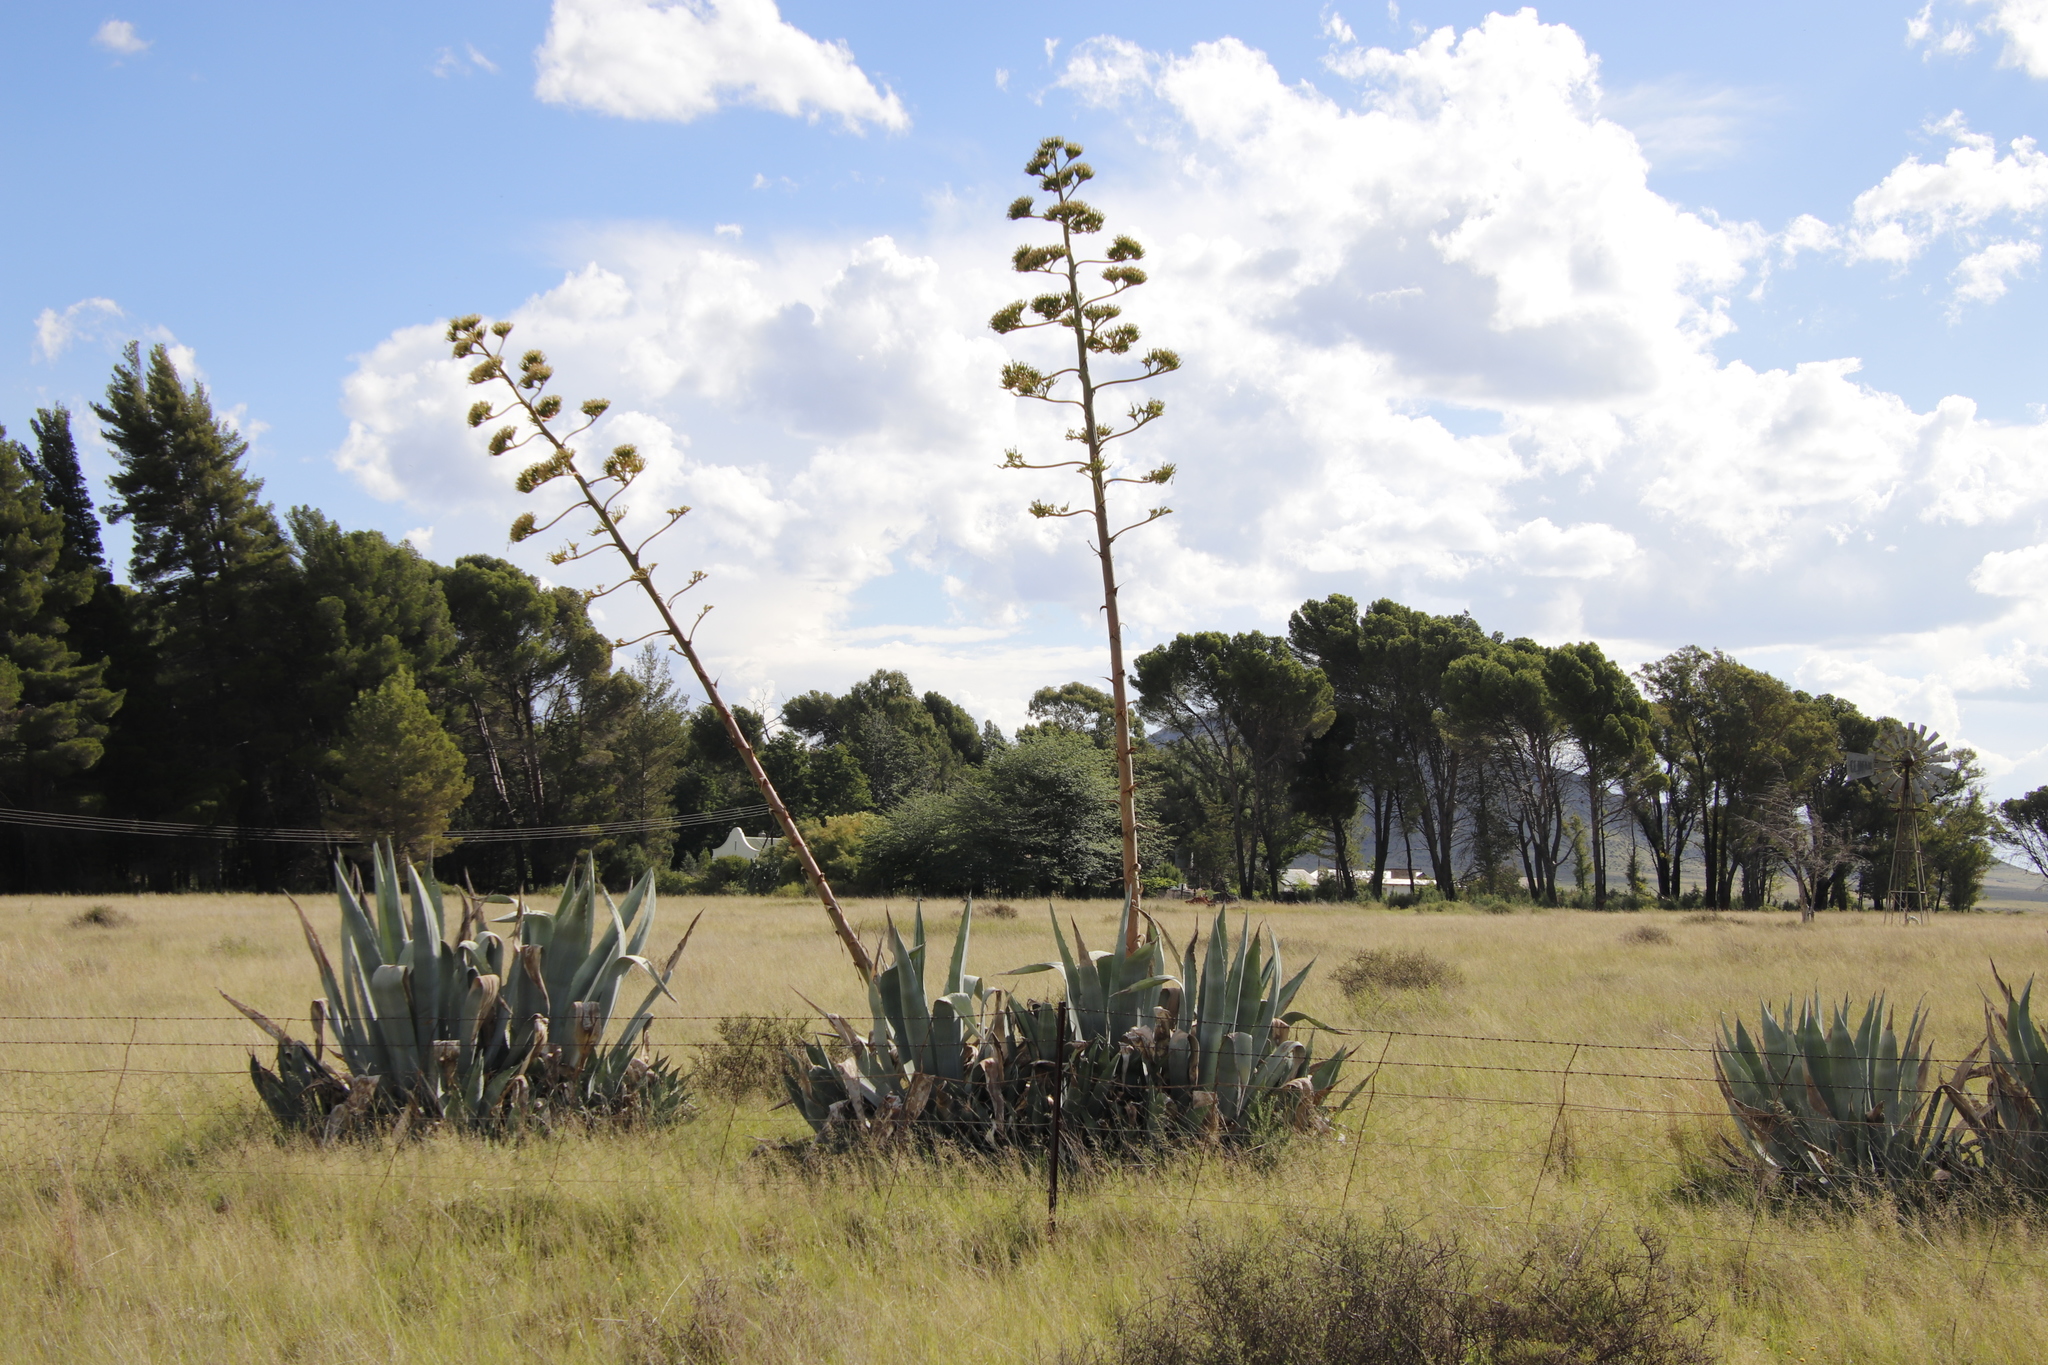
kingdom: Plantae
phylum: Tracheophyta
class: Liliopsida
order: Asparagales
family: Asparagaceae
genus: Agave
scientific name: Agave americana
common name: Centuryplant
